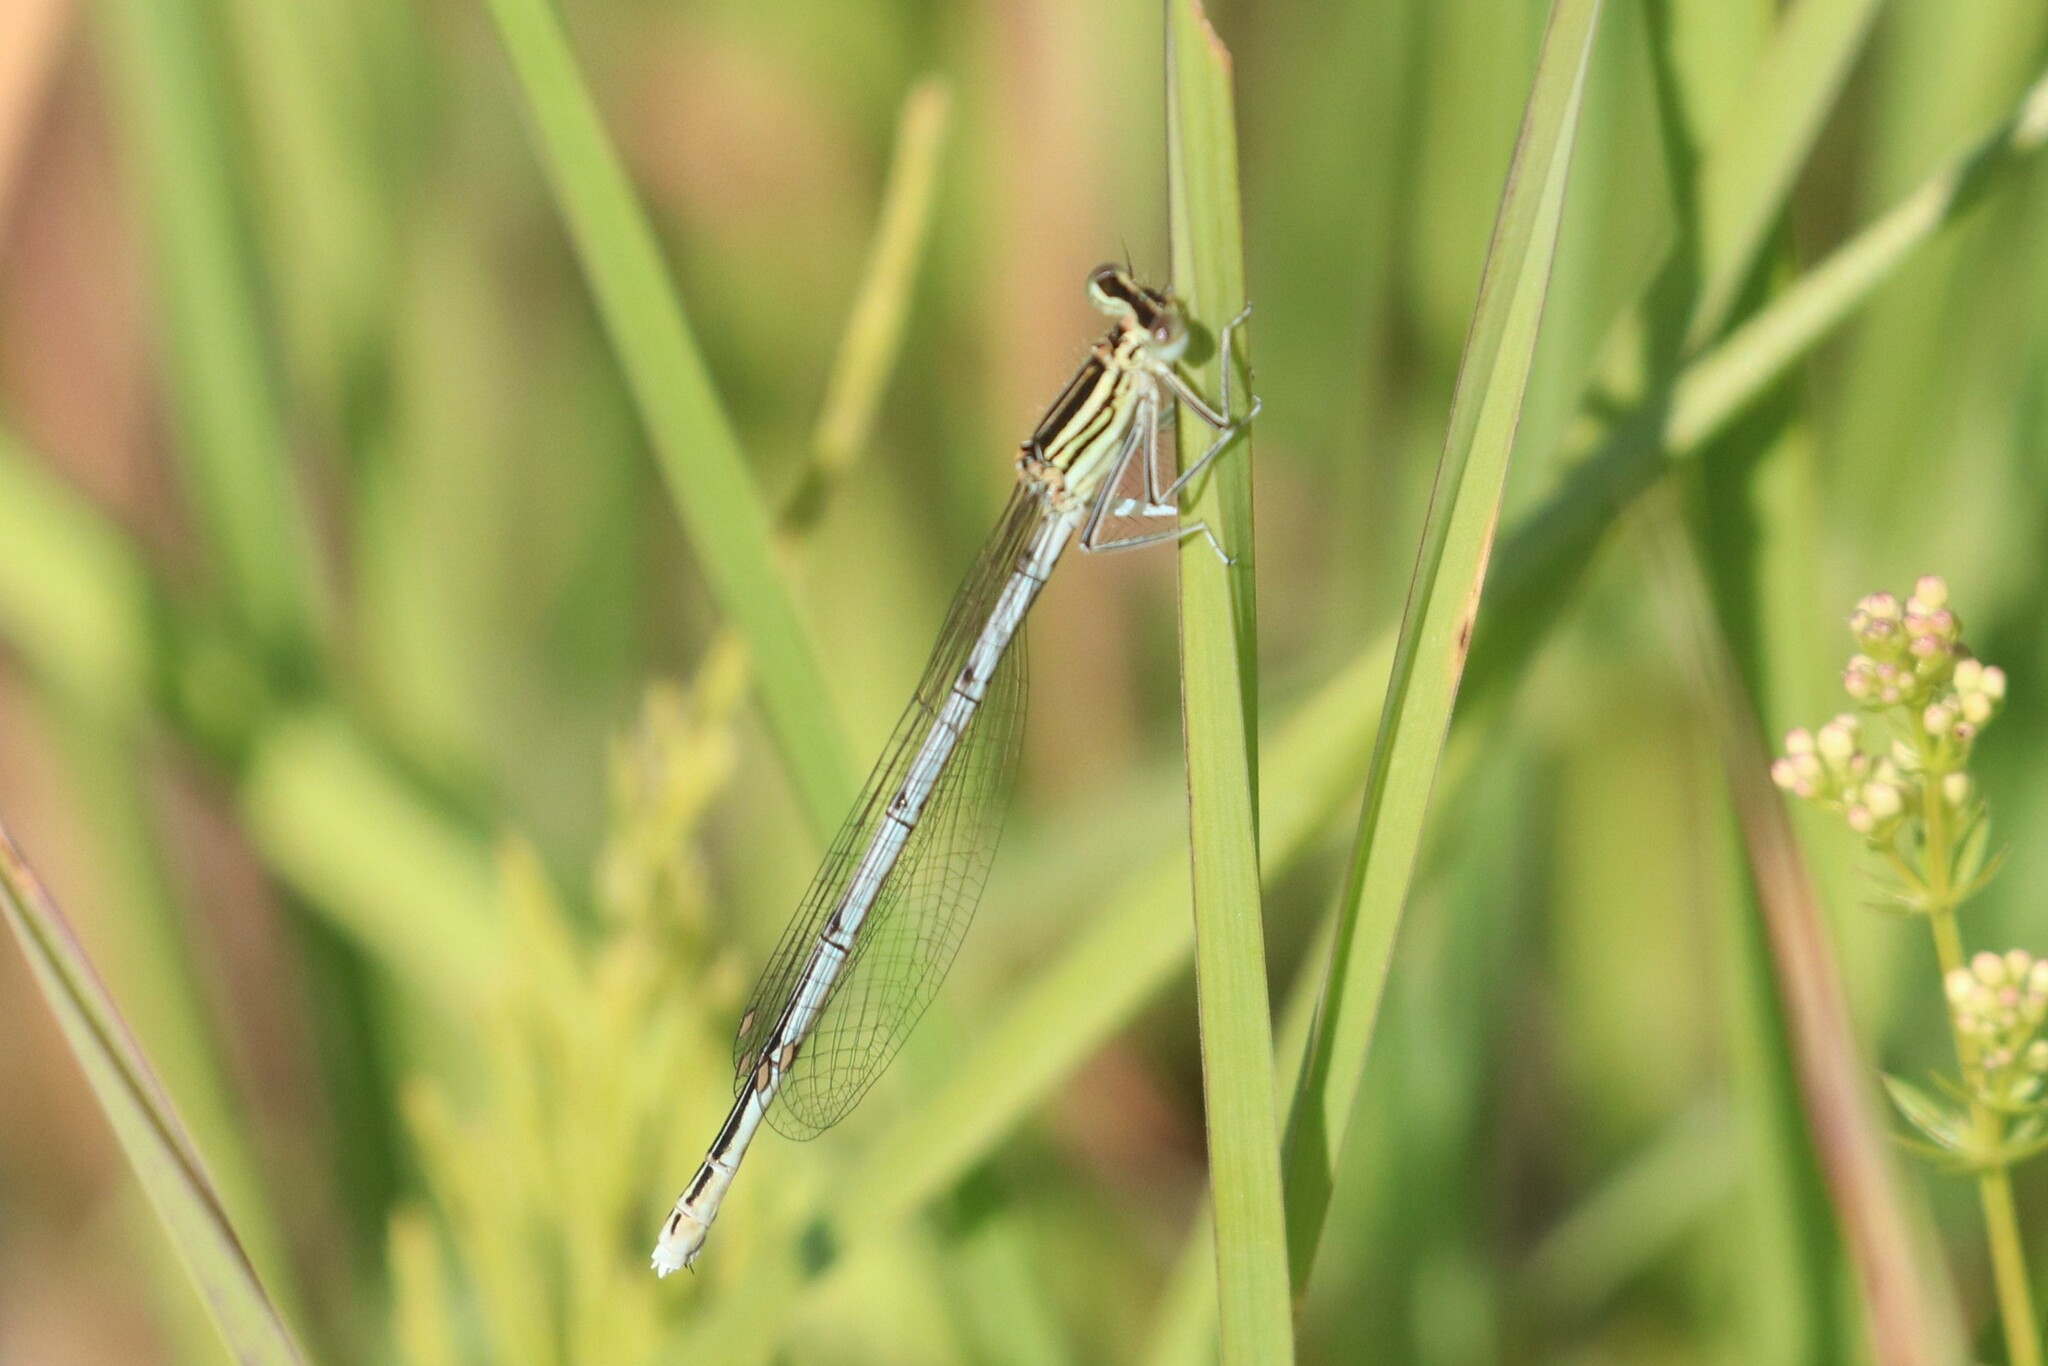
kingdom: Animalia
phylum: Arthropoda
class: Insecta
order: Odonata
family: Platycnemididae
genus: Platycnemis
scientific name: Platycnemis pennipes
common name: White-legged damselfly
